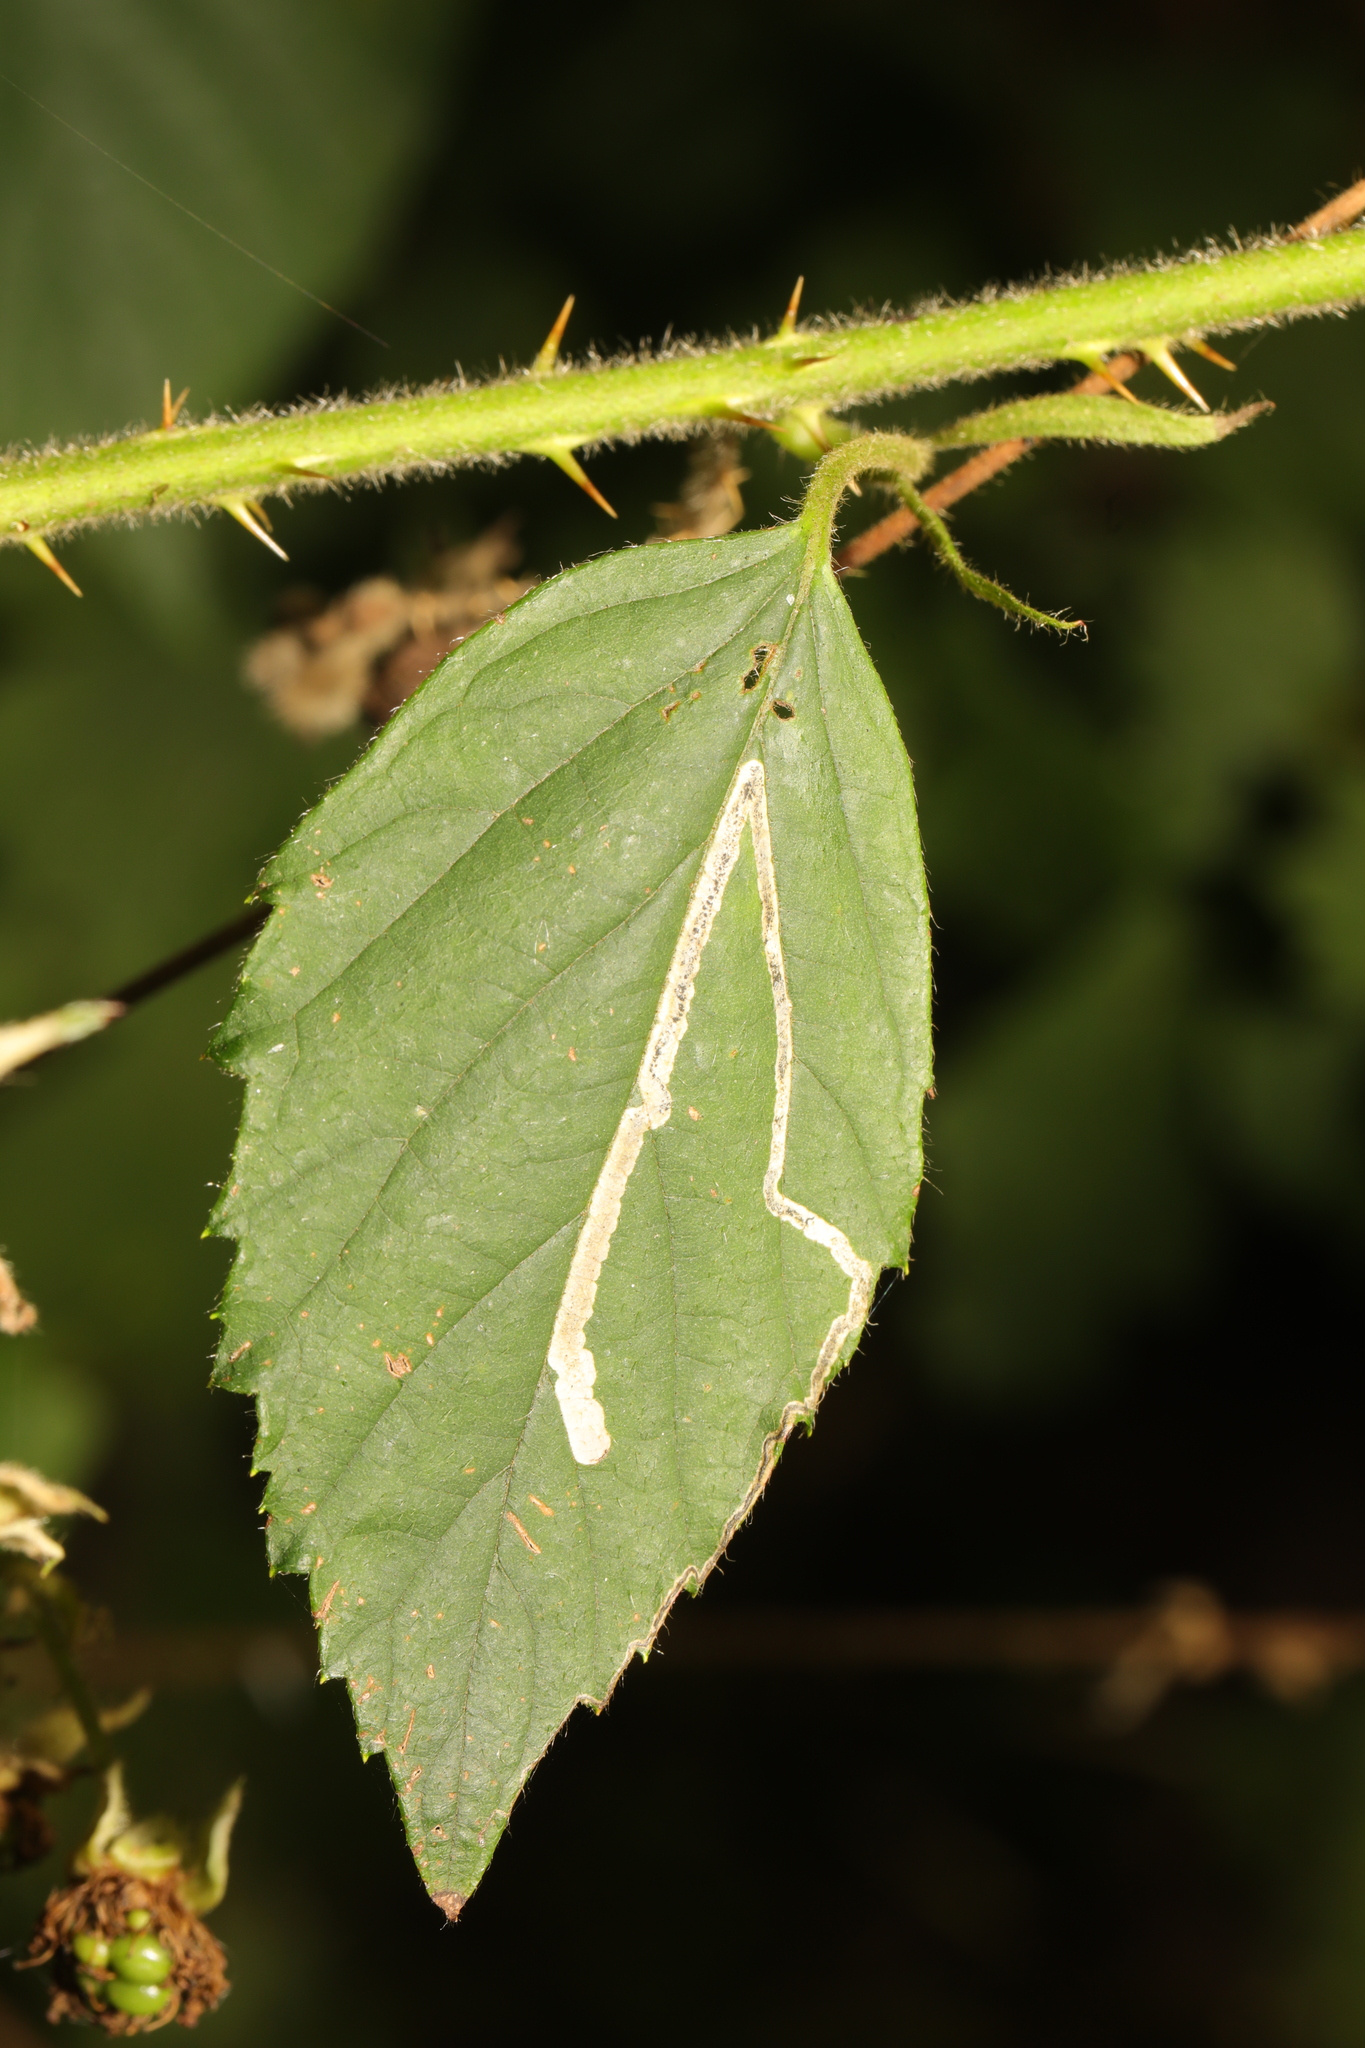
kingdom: Animalia
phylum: Arthropoda
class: Insecta
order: Lepidoptera
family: Nepticulidae
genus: Stigmella
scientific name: Stigmella aurella
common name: Golden pigmy
